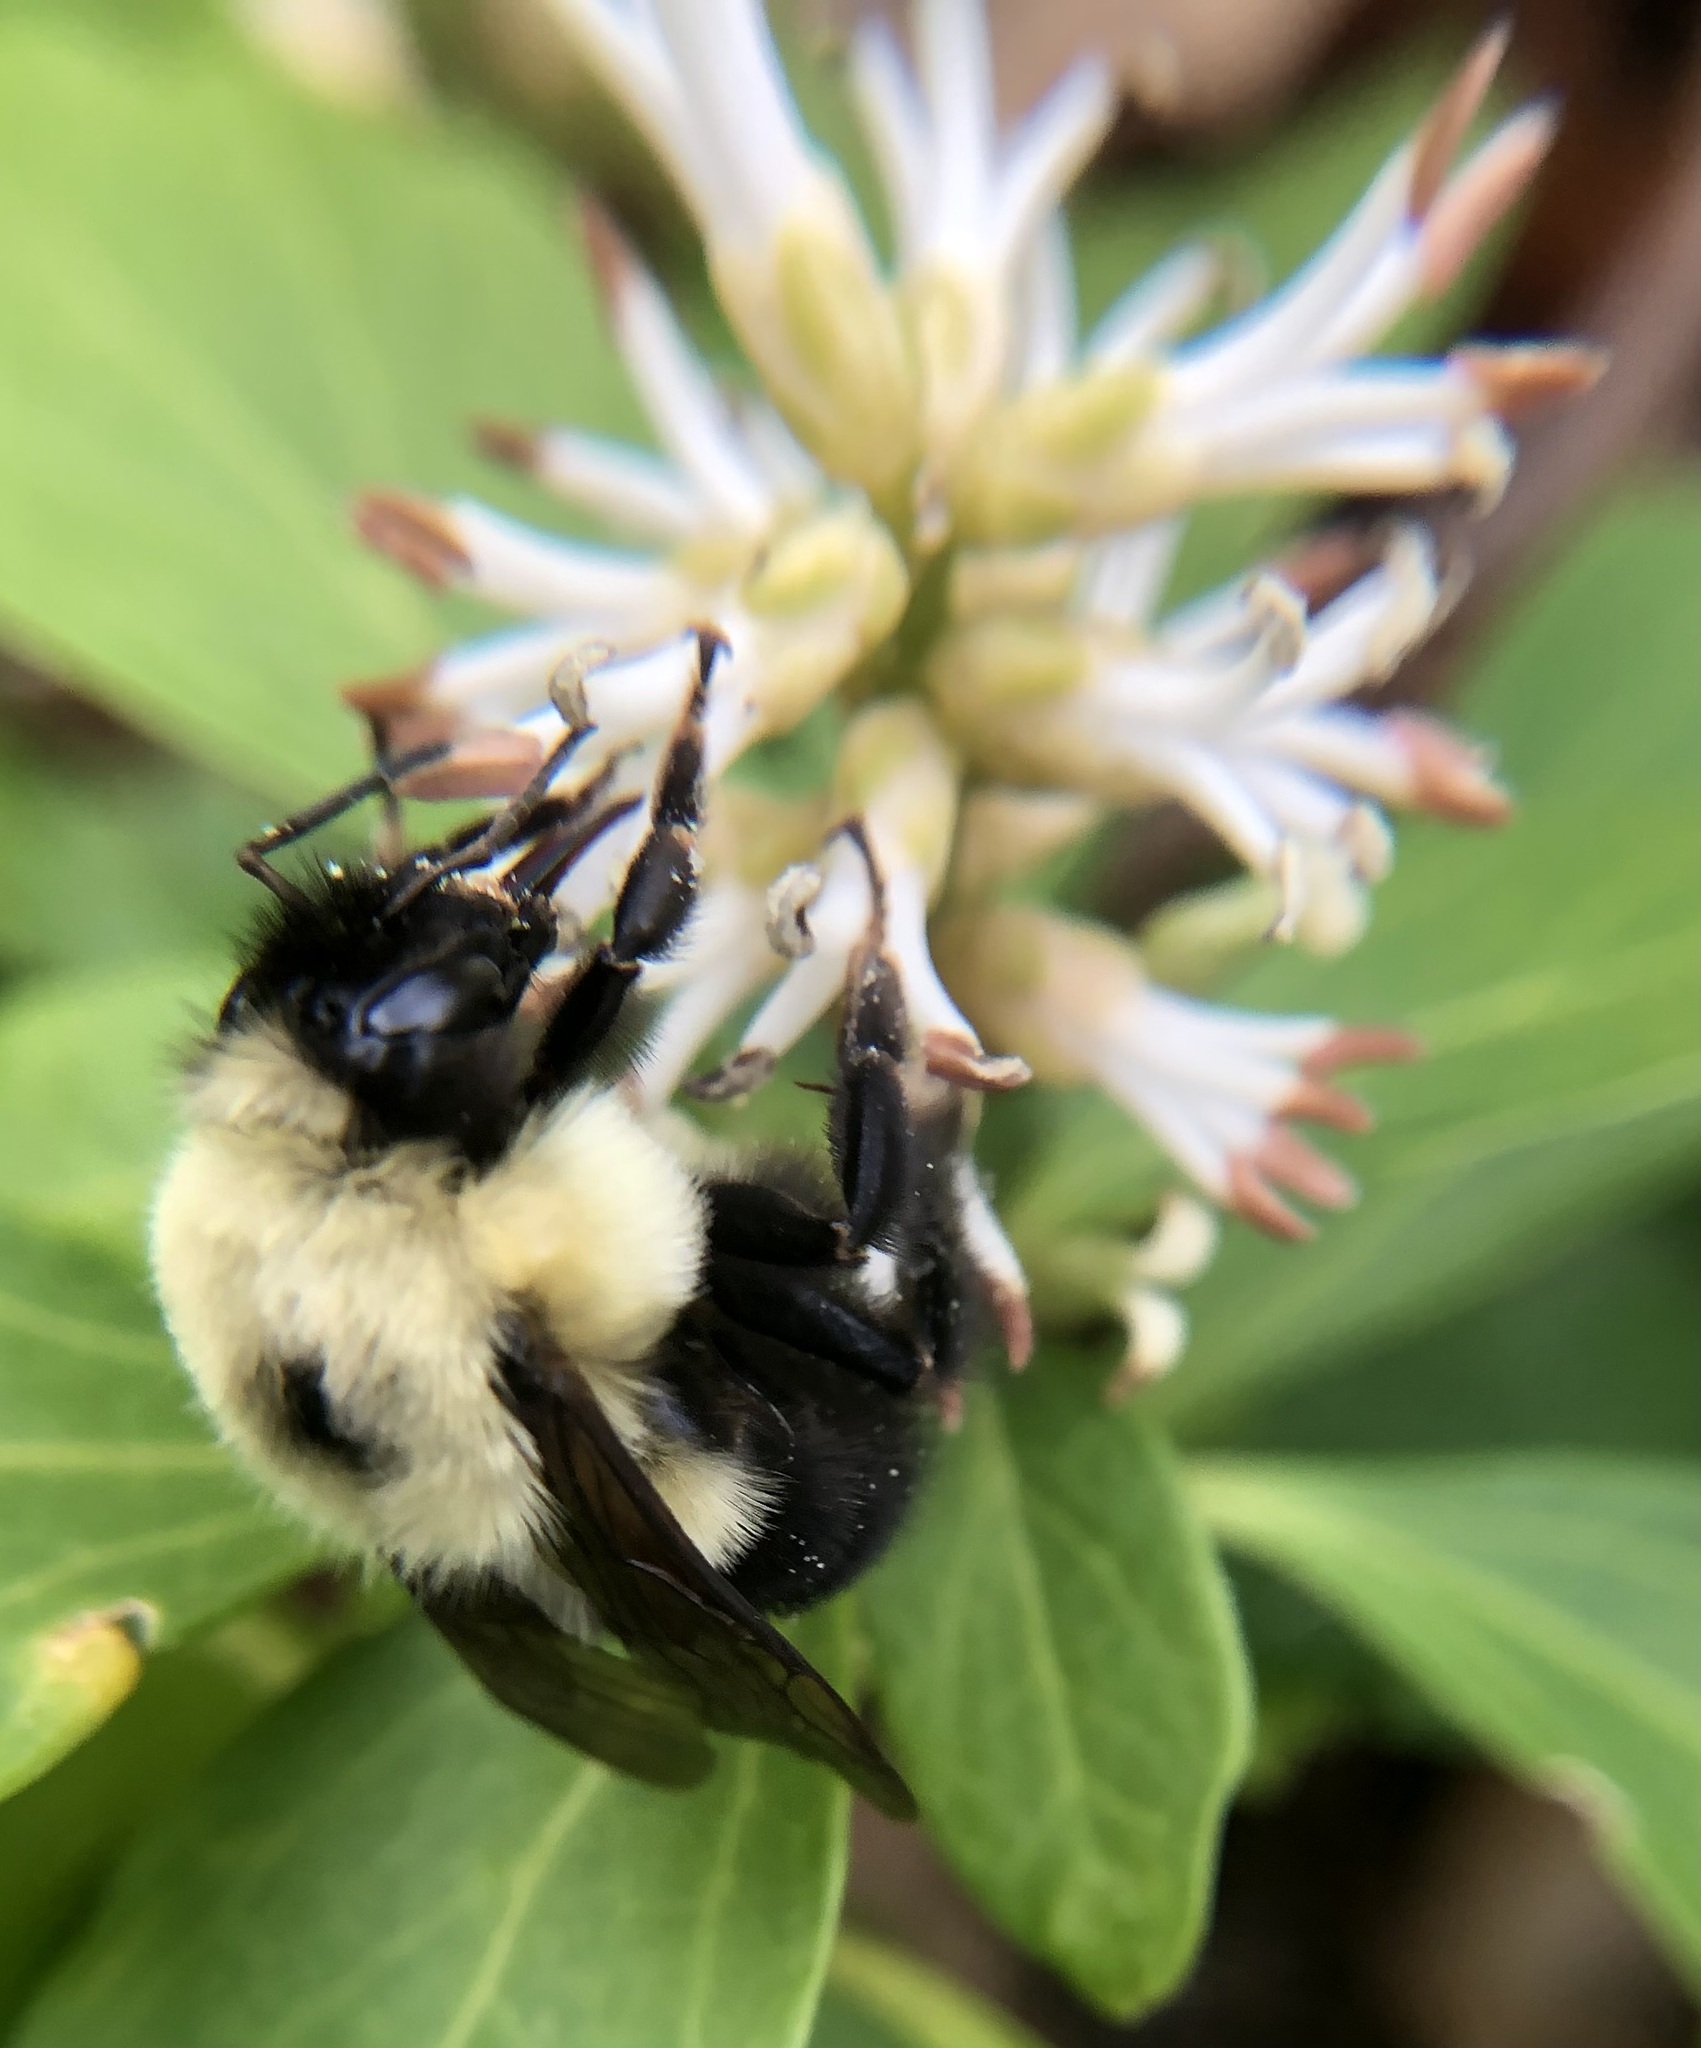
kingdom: Animalia
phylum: Arthropoda
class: Insecta
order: Hymenoptera
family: Apidae
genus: Bombus
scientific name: Bombus bimaculatus
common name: Two-spotted bumble bee
